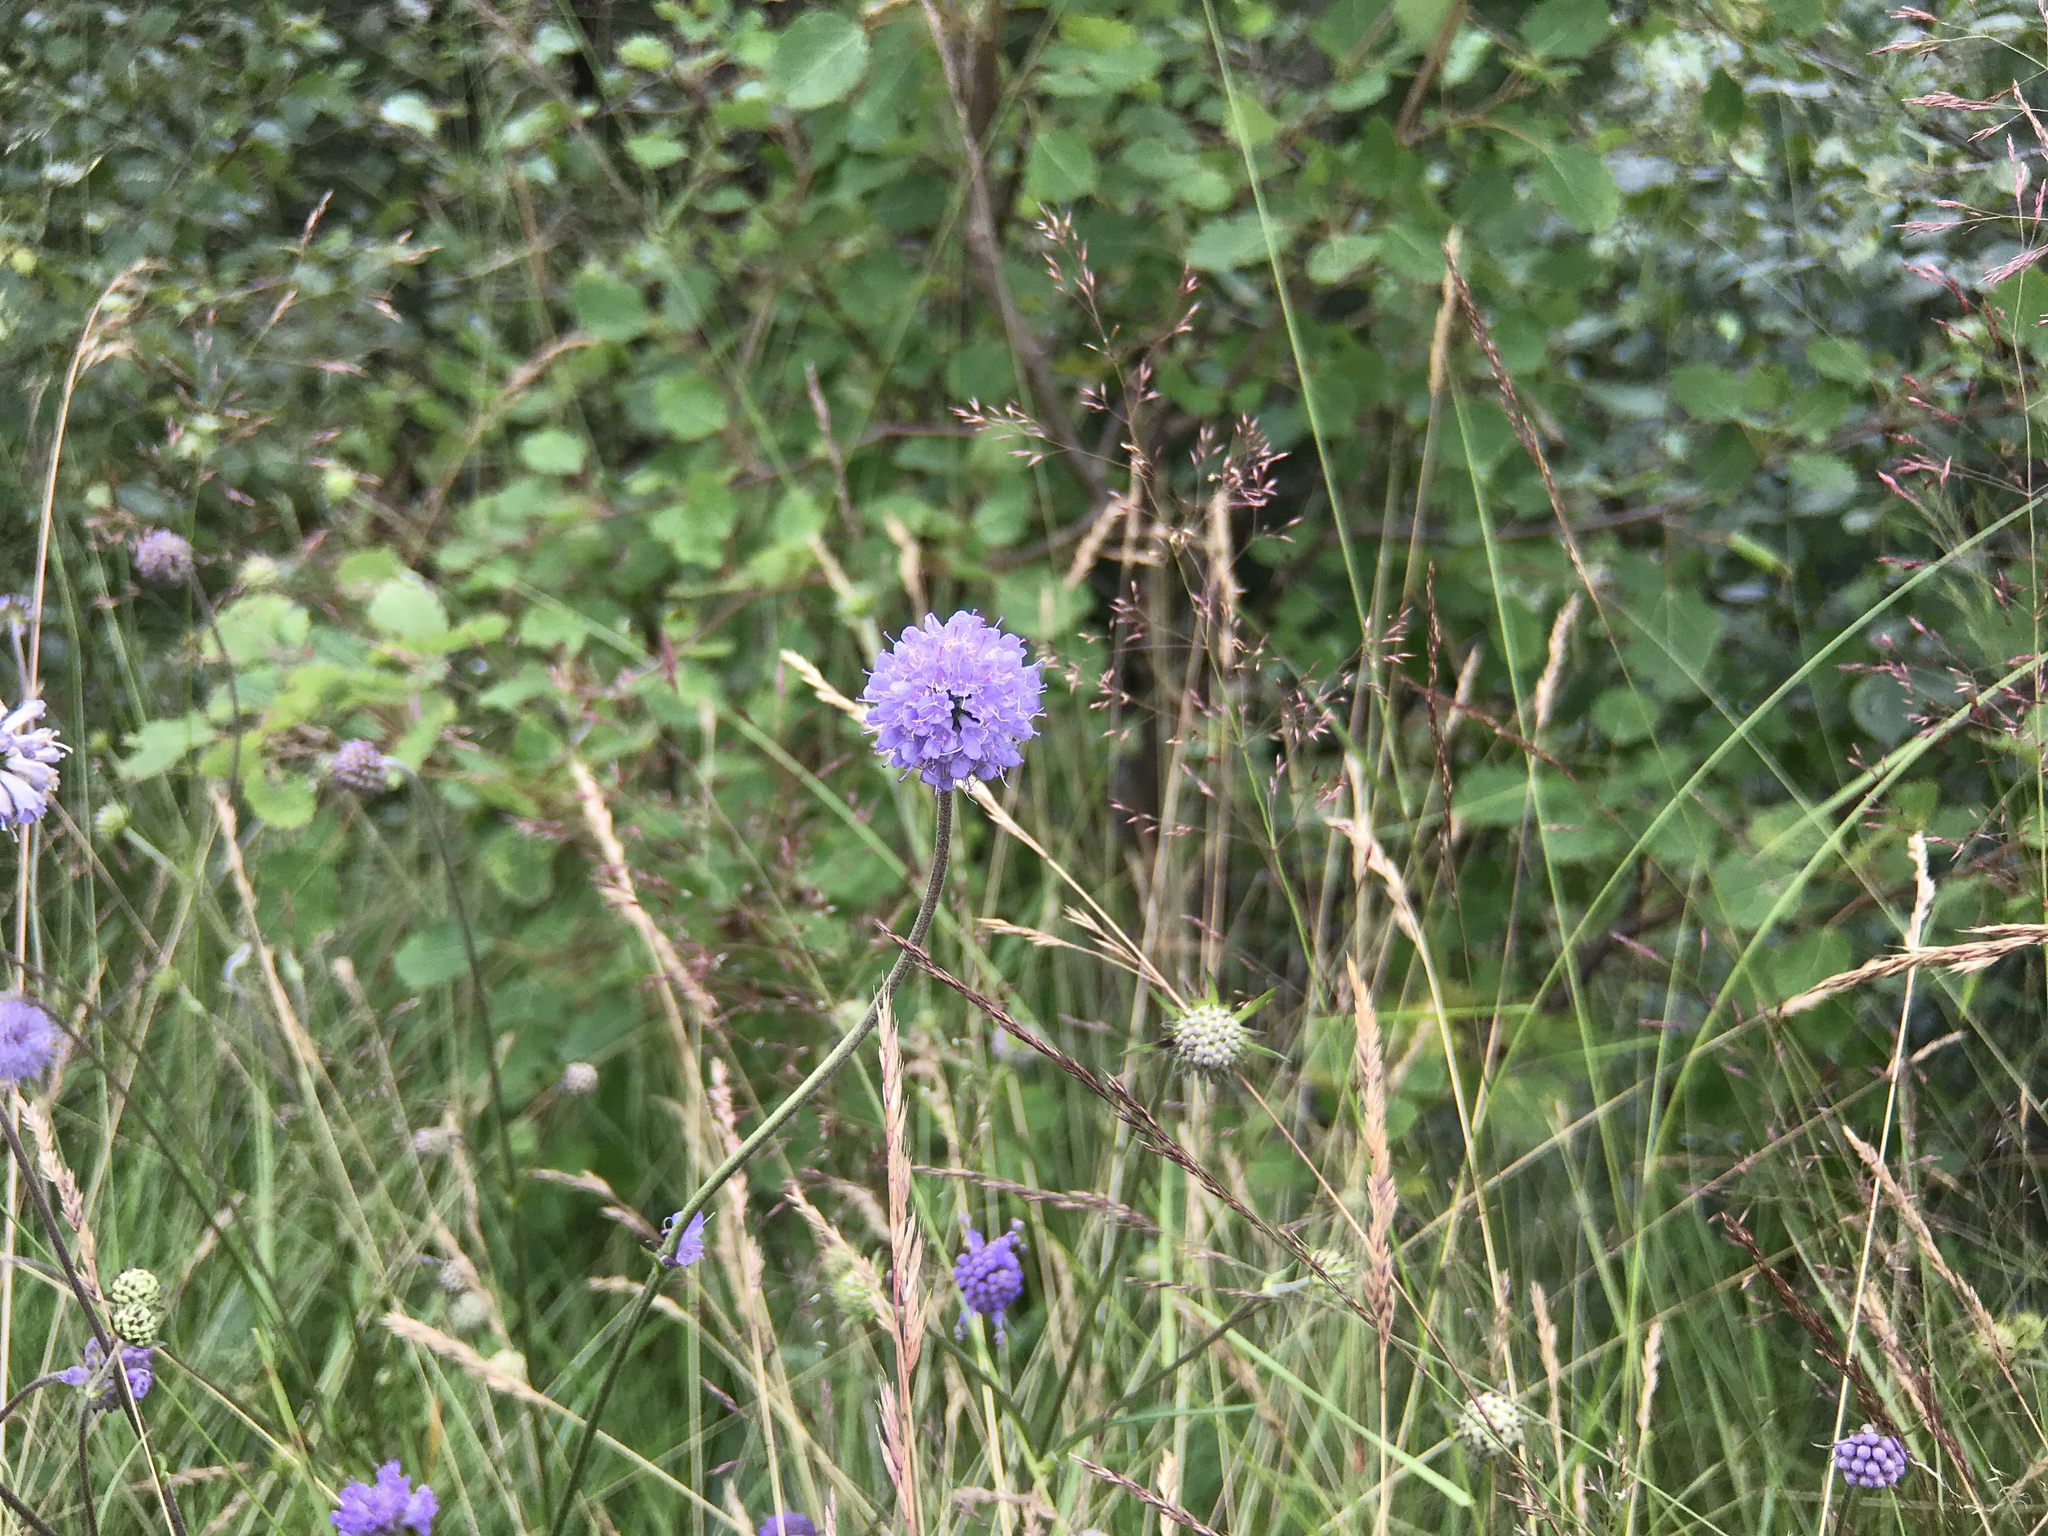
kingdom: Plantae
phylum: Tracheophyta
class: Magnoliopsida
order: Dipsacales
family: Caprifoliaceae
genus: Succisa
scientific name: Succisa pratensis
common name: Devil's-bit
